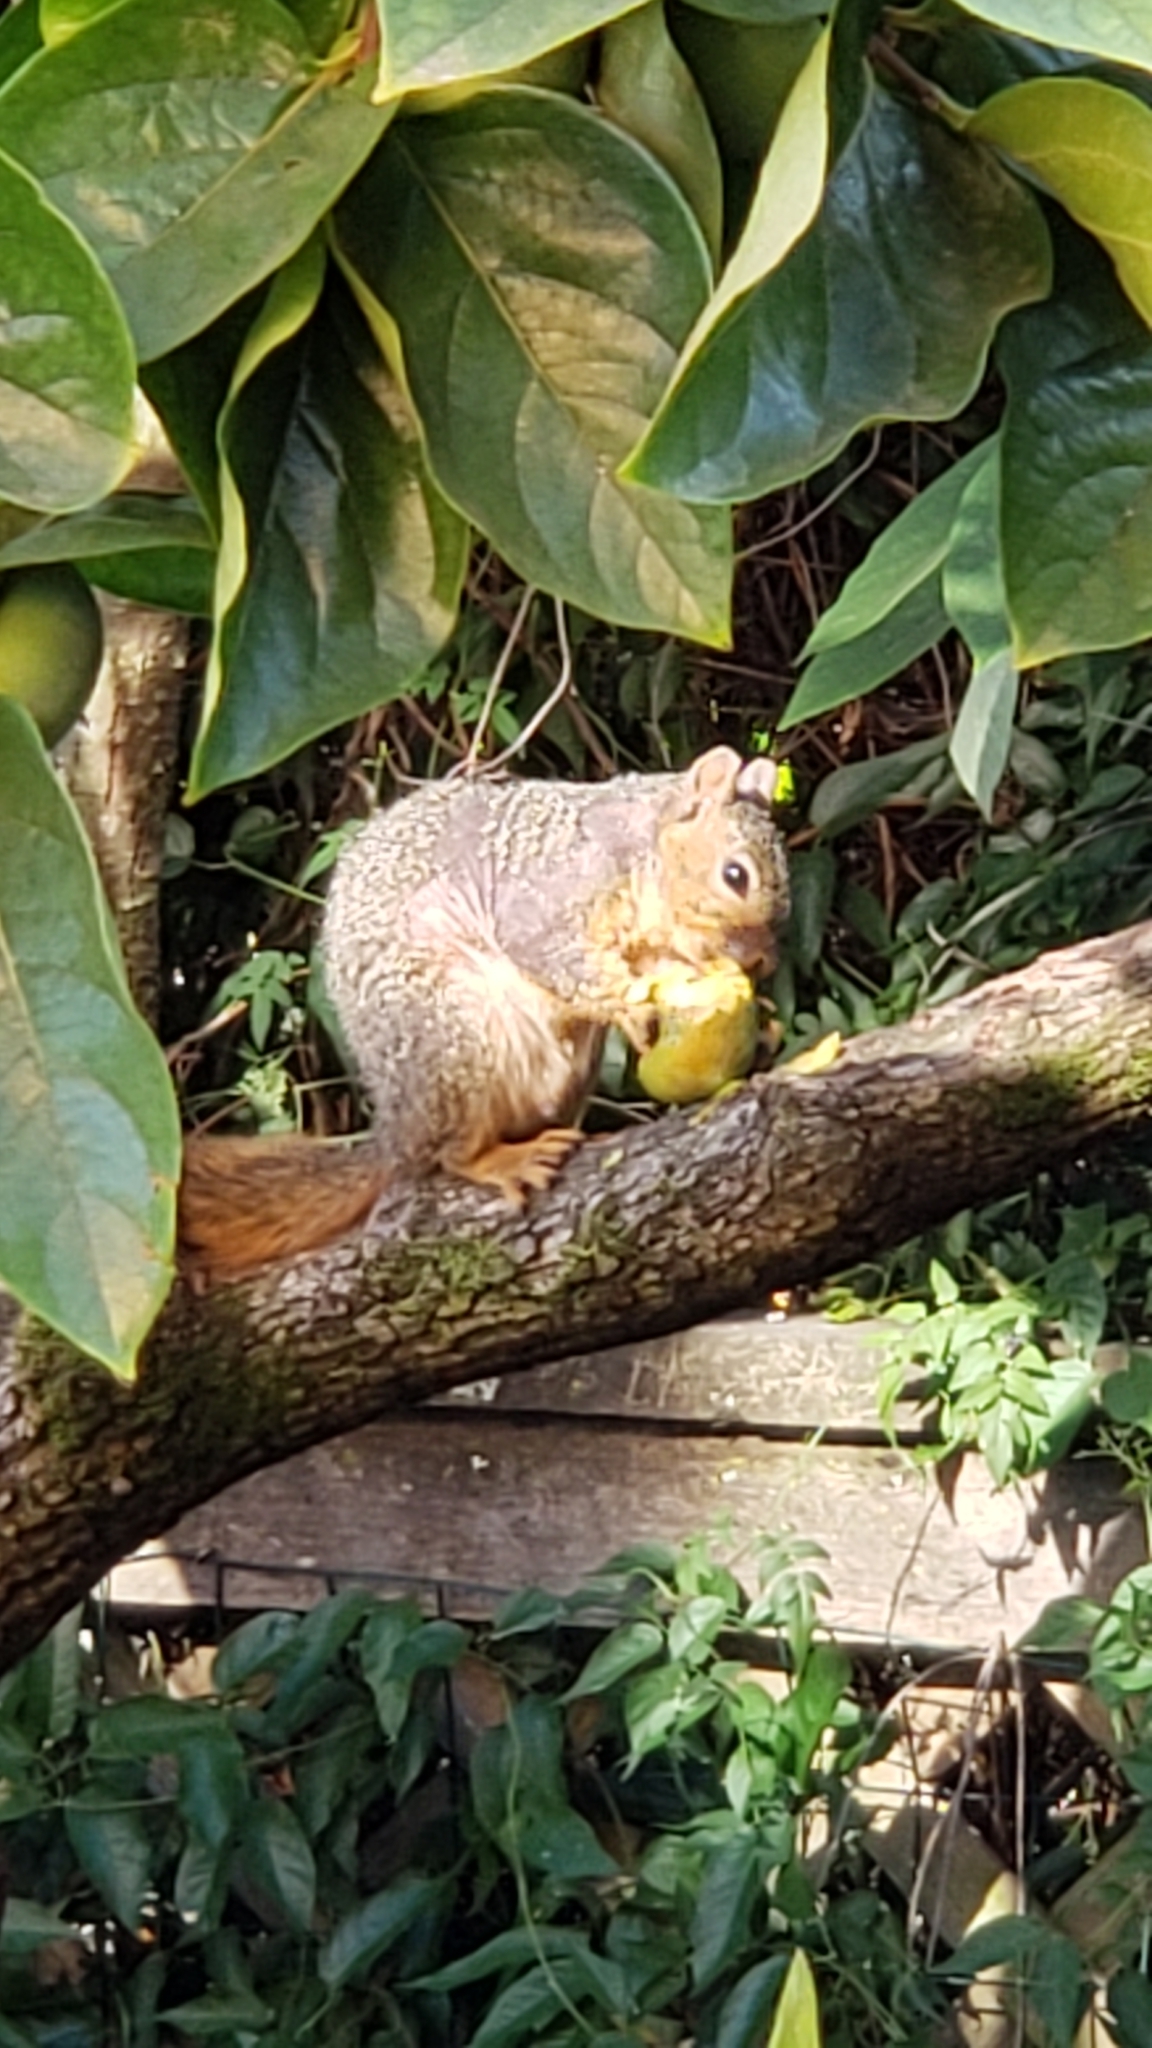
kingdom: Animalia
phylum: Chordata
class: Mammalia
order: Rodentia
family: Sciuridae
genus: Sciurus
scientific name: Sciurus niger
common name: Fox squirrel
